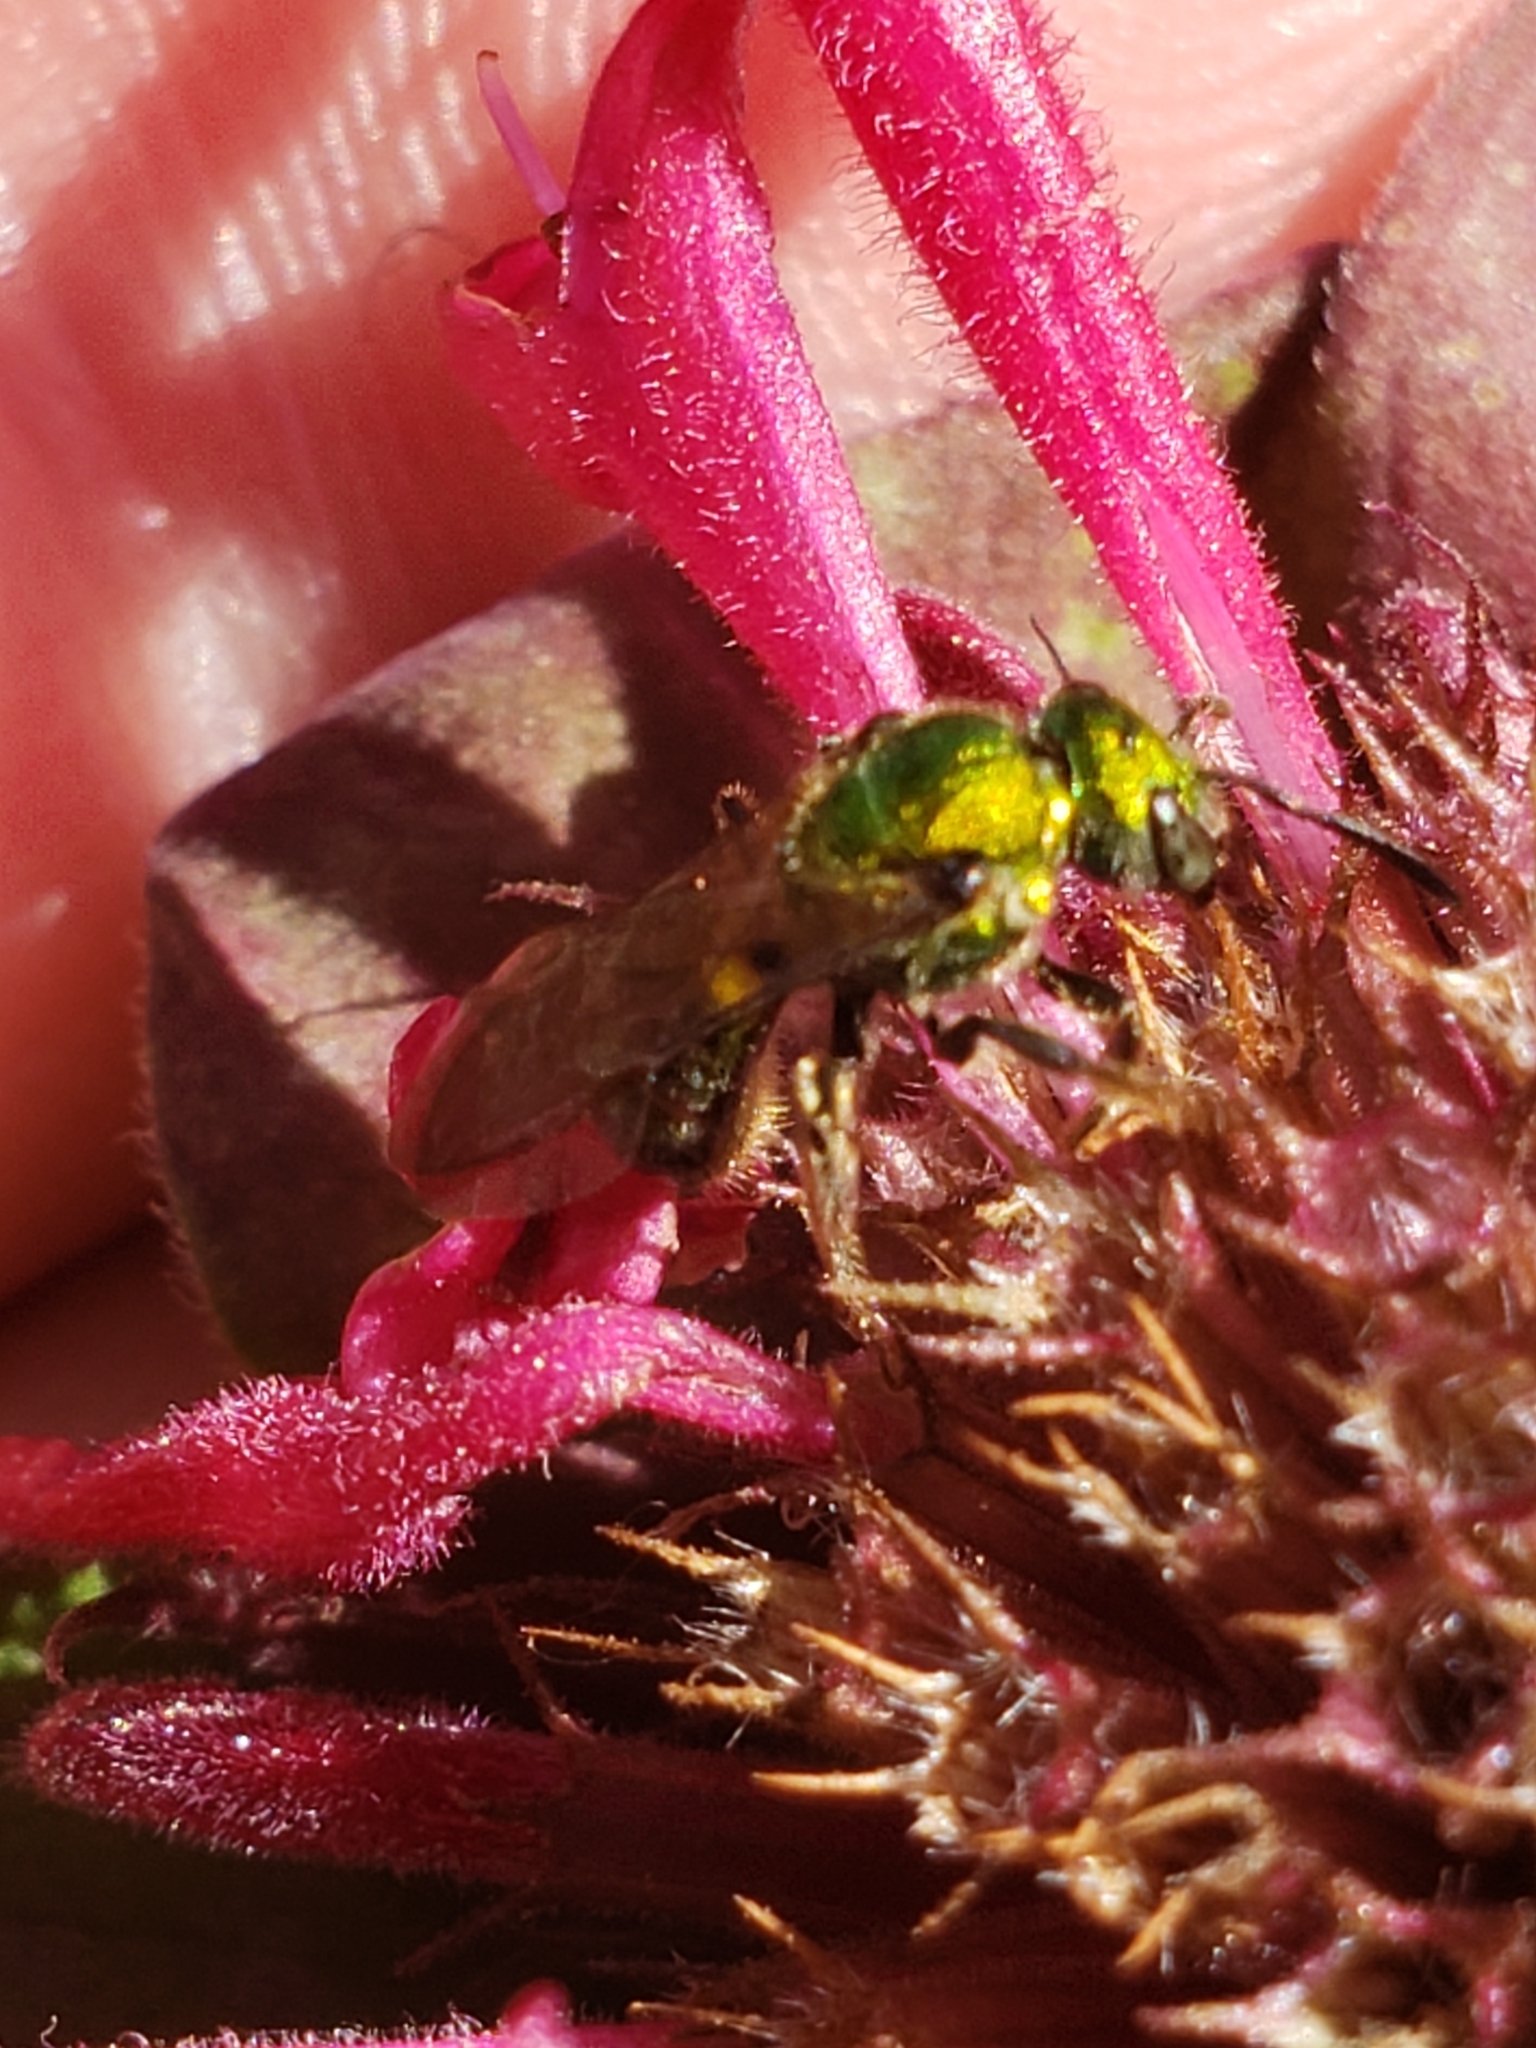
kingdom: Animalia
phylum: Arthropoda
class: Insecta
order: Hymenoptera
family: Halictidae
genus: Augochlora
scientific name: Augochlora pura
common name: Pure green sweat bee
